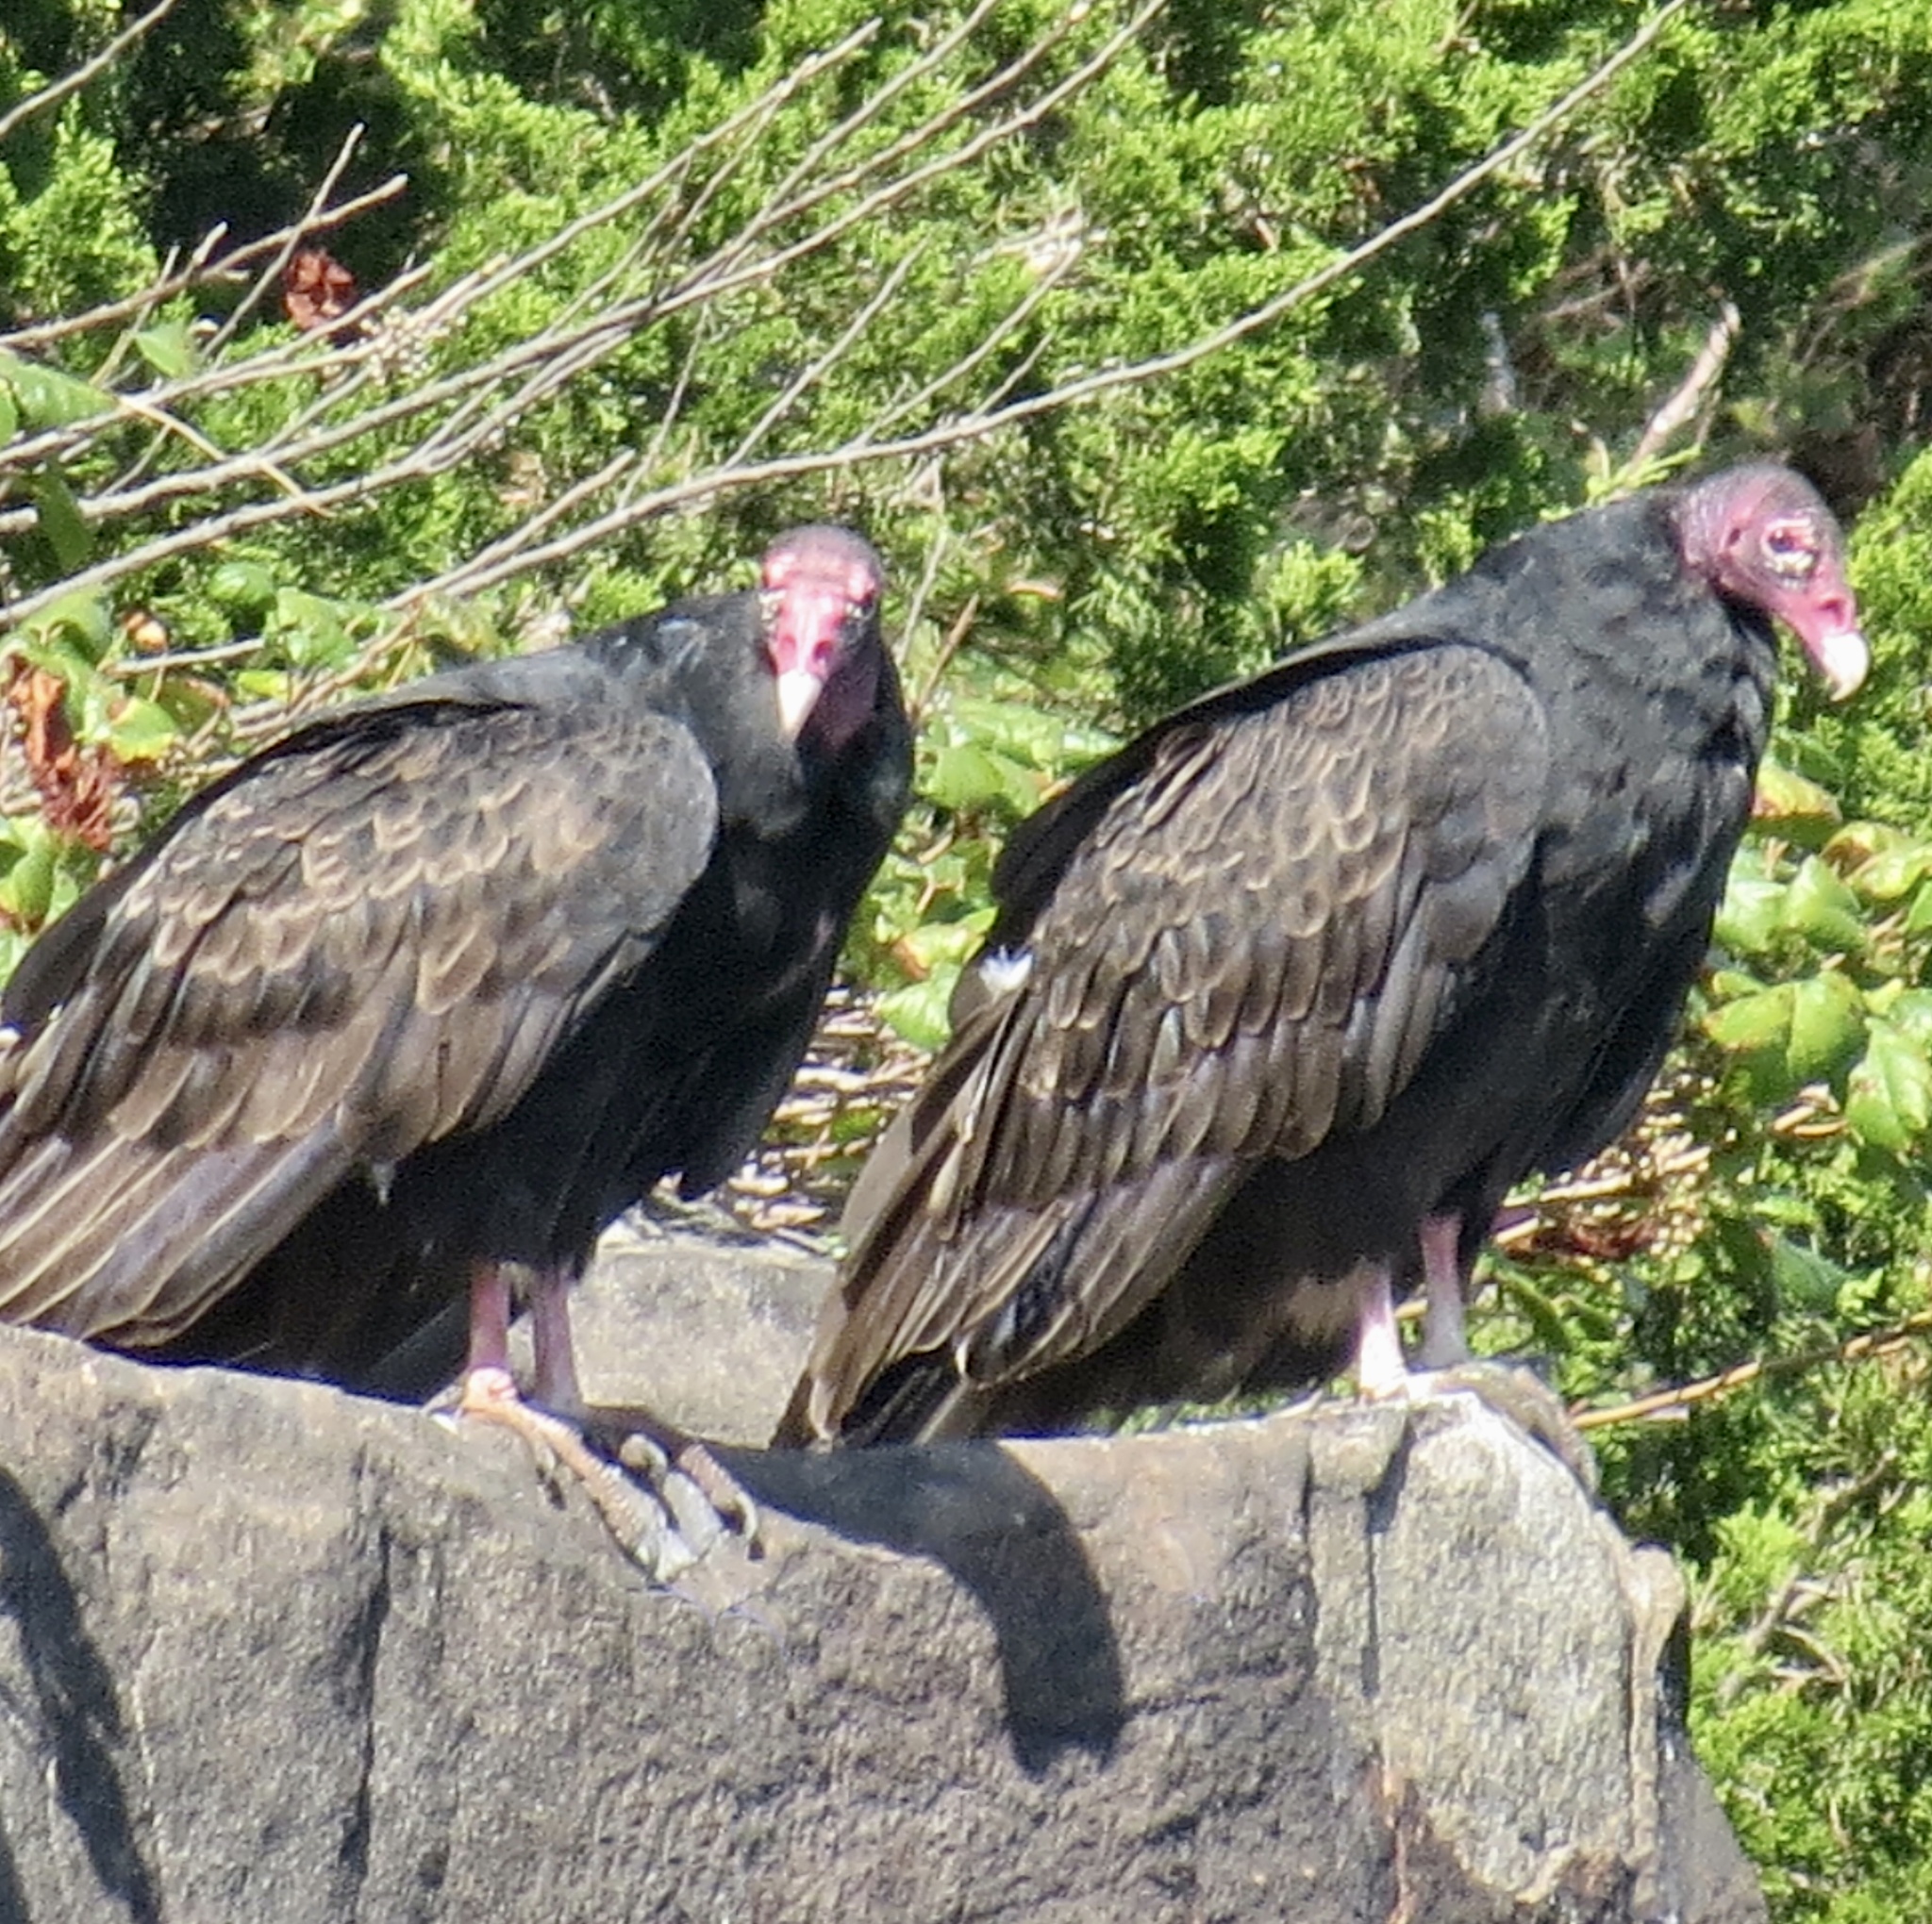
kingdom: Animalia
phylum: Chordata
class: Aves
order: Accipitriformes
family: Cathartidae
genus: Cathartes
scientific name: Cathartes aura
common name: Turkey vulture
